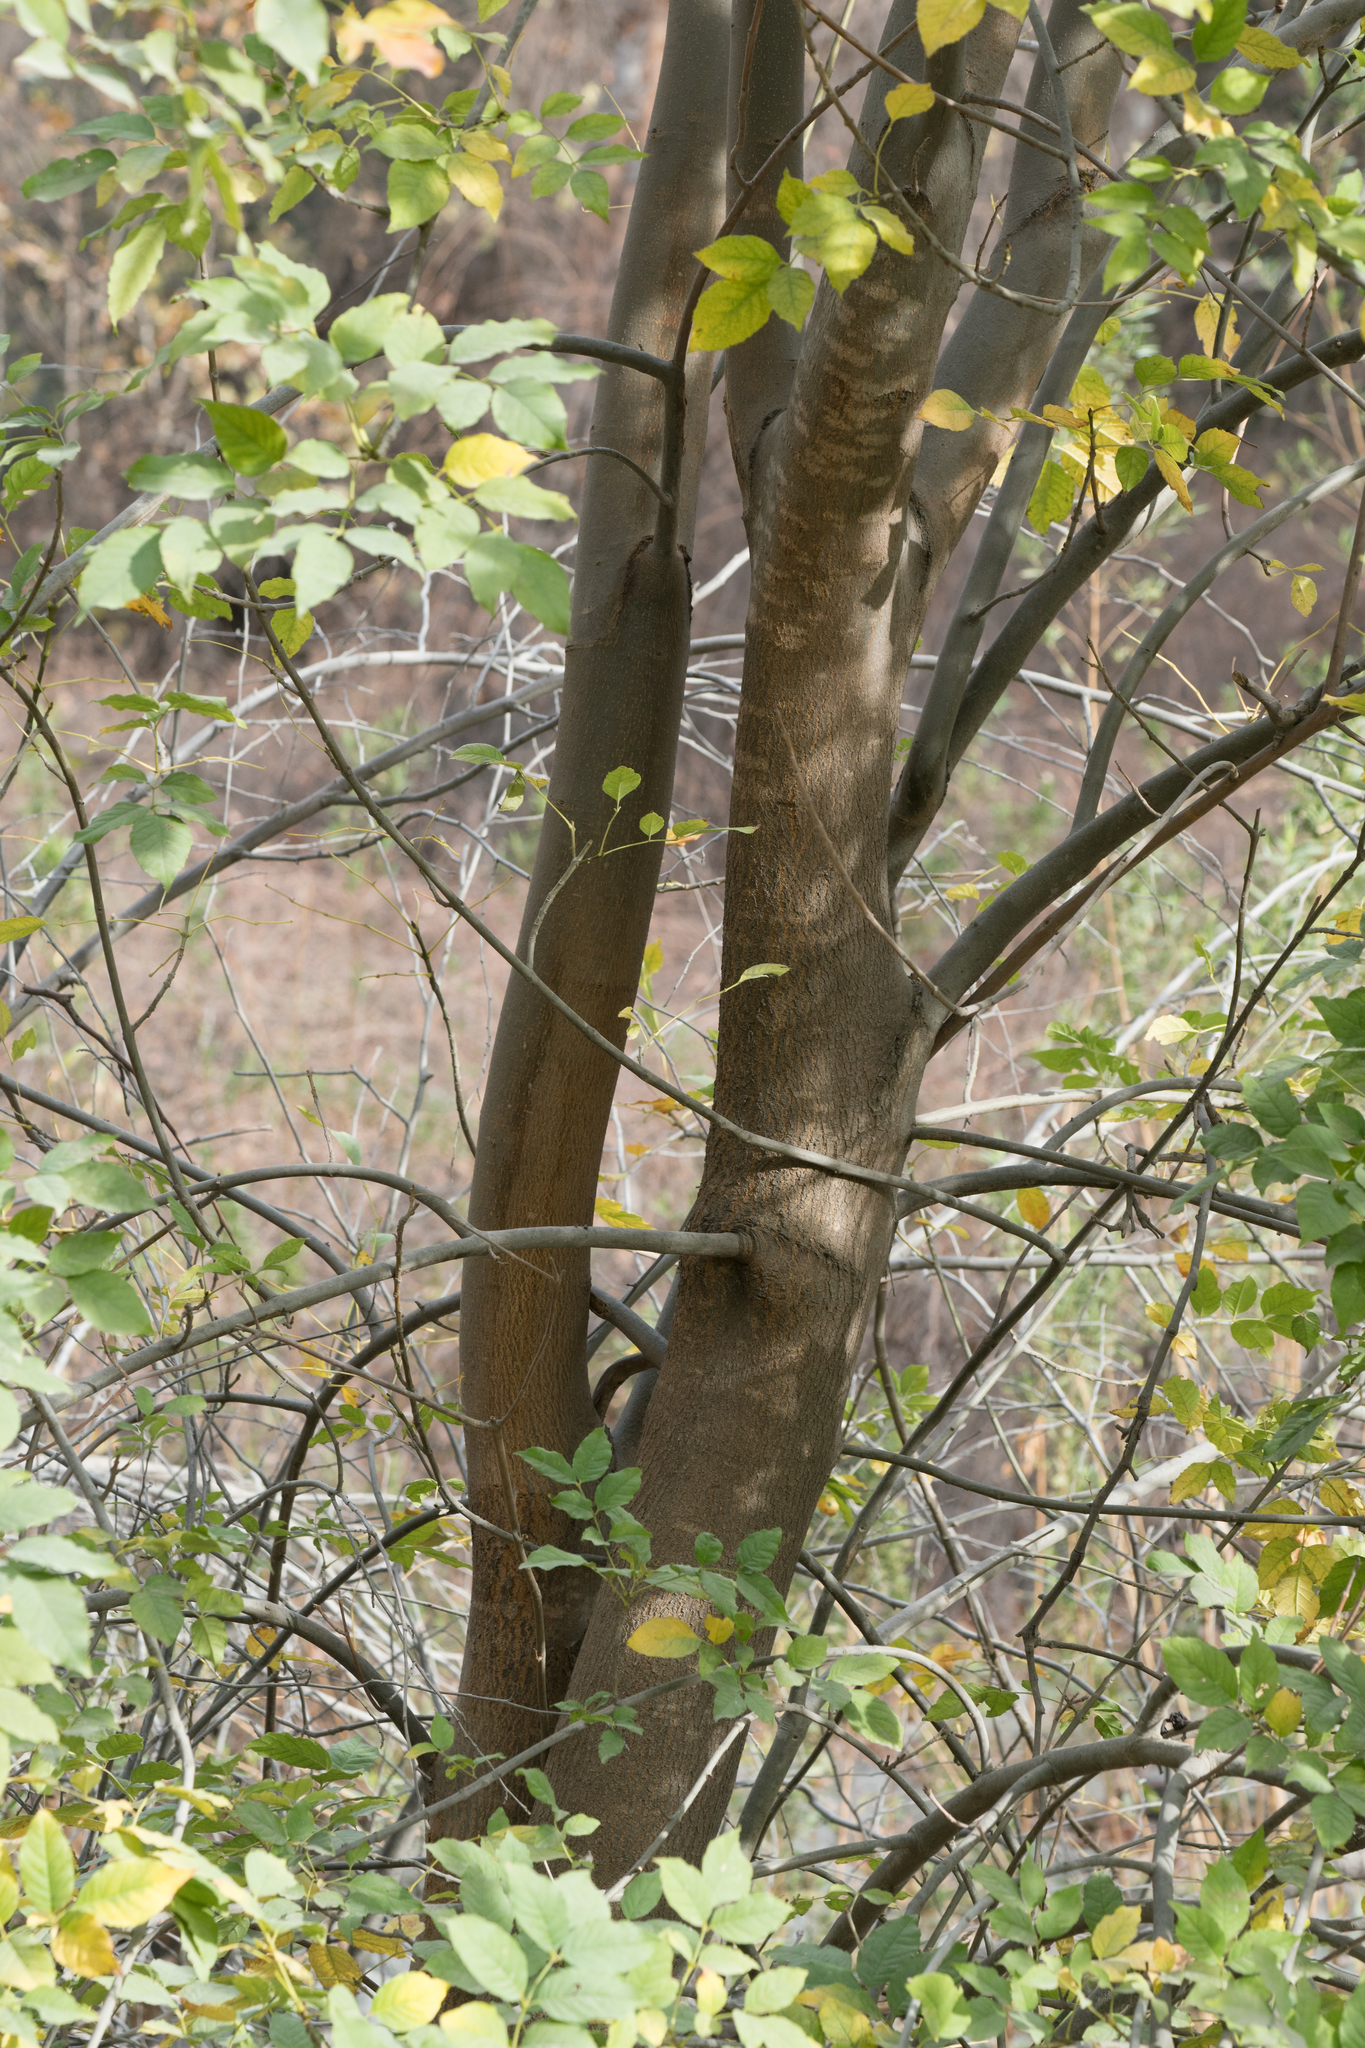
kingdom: Plantae
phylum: Tracheophyta
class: Magnoliopsida
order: Lamiales
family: Oleaceae
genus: Fraxinus
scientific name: Fraxinus velutina
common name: Arizon ash
